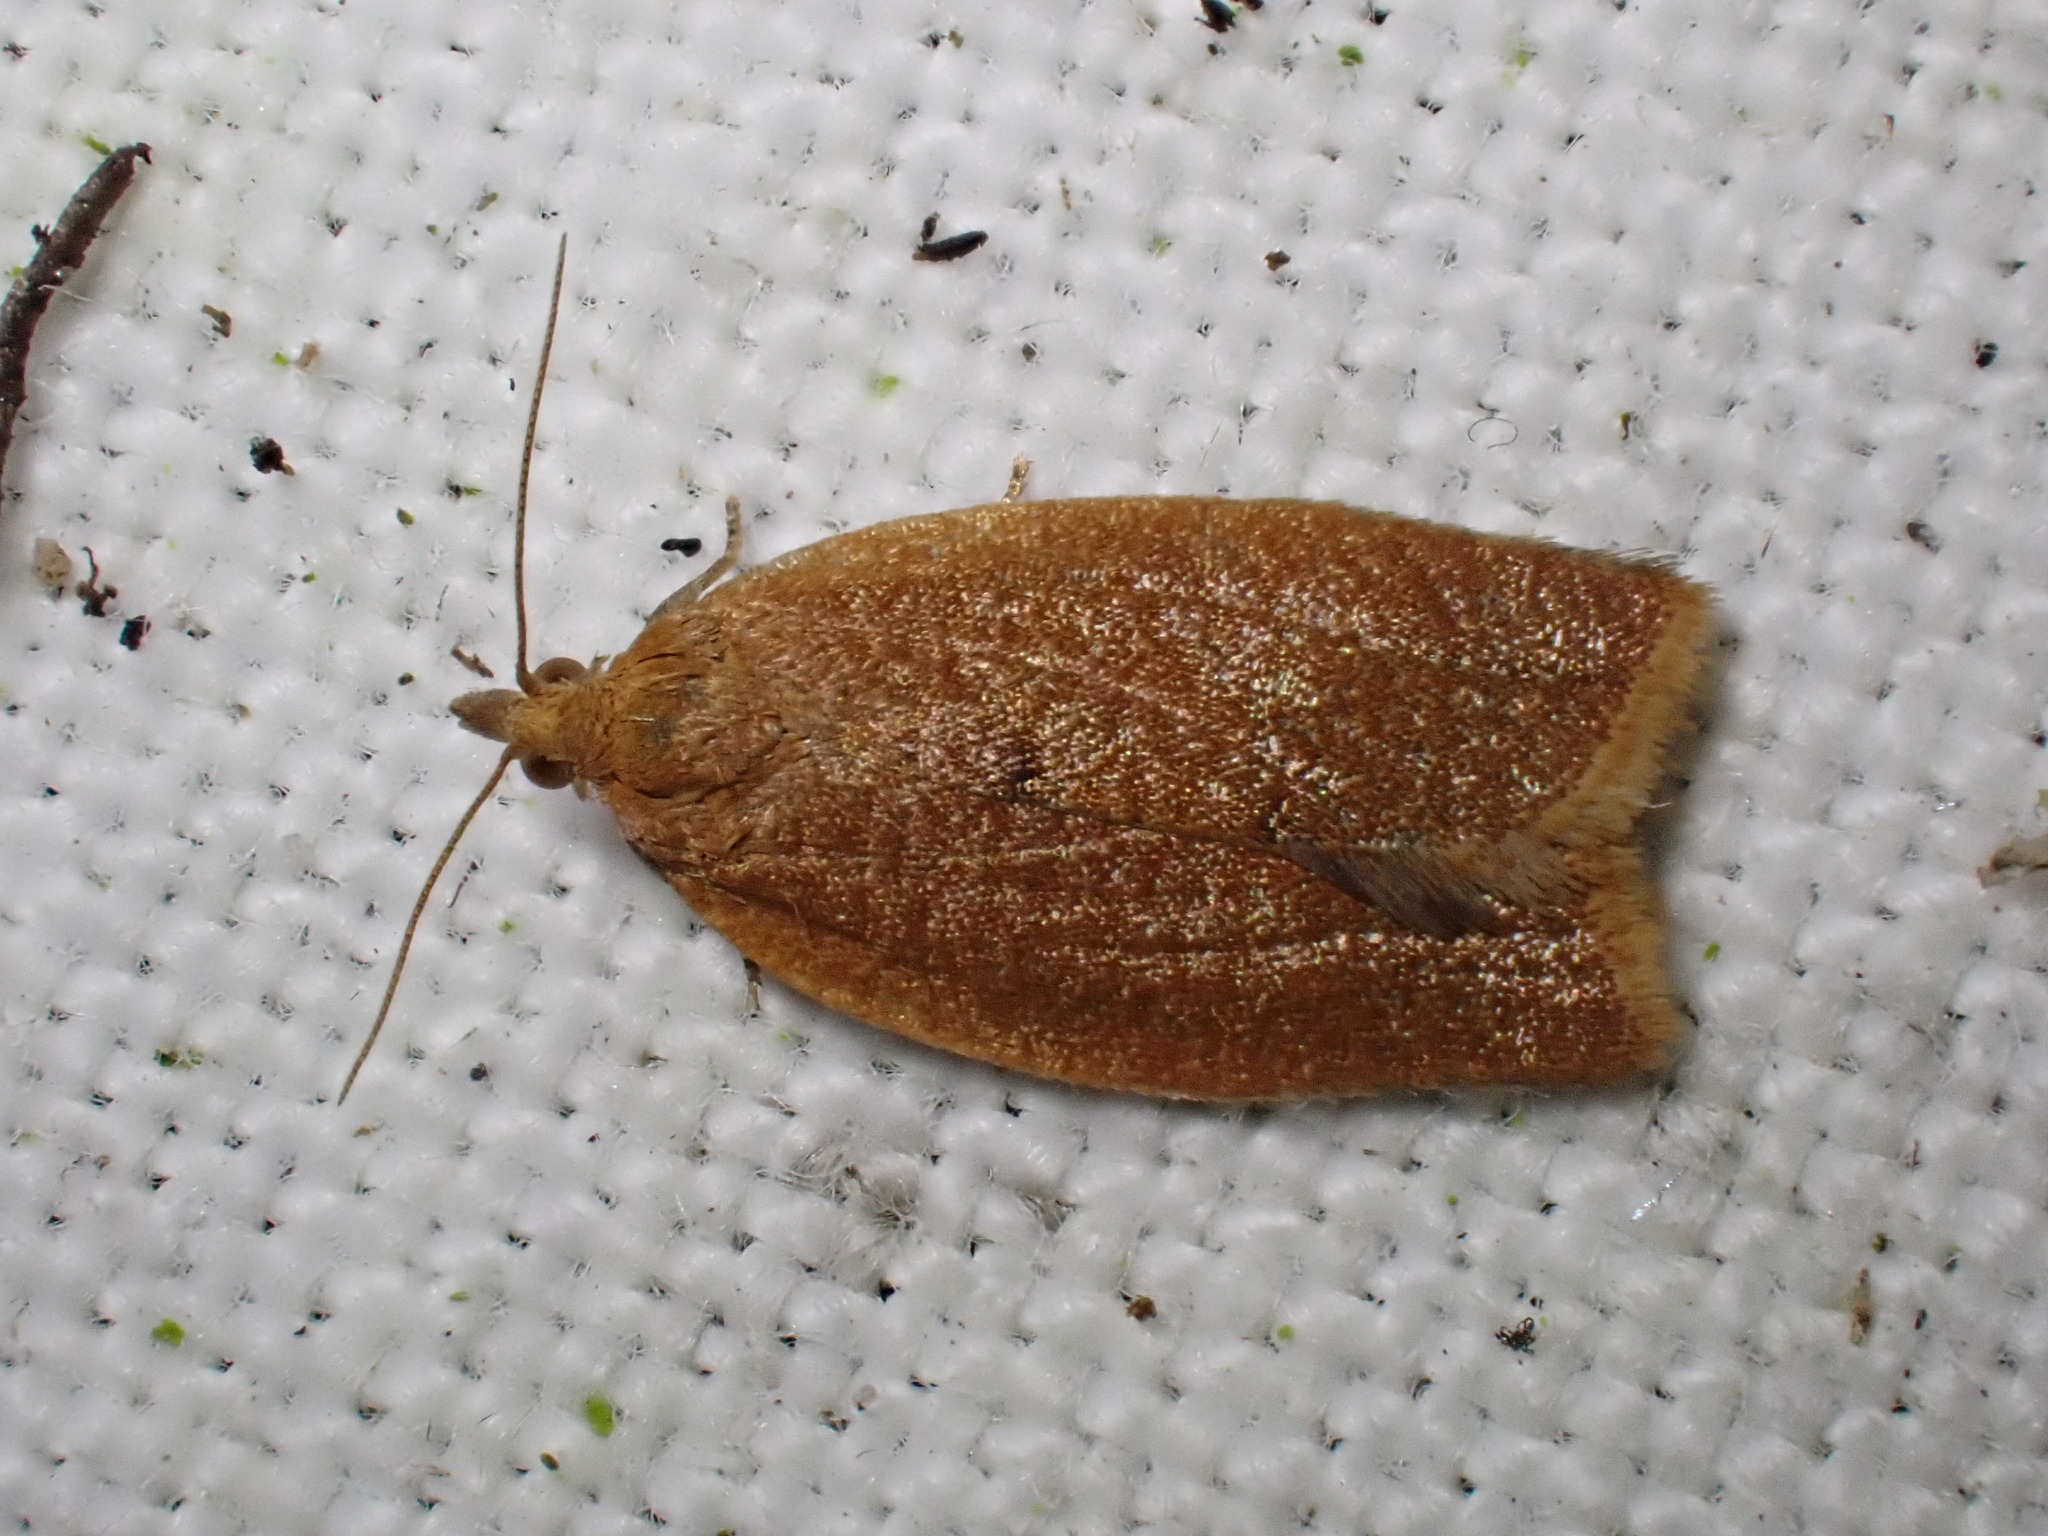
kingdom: Animalia
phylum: Arthropoda
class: Insecta
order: Lepidoptera
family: Tortricidae
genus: Clepsis
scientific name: Clepsis consimilana
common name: Privet tortrix
